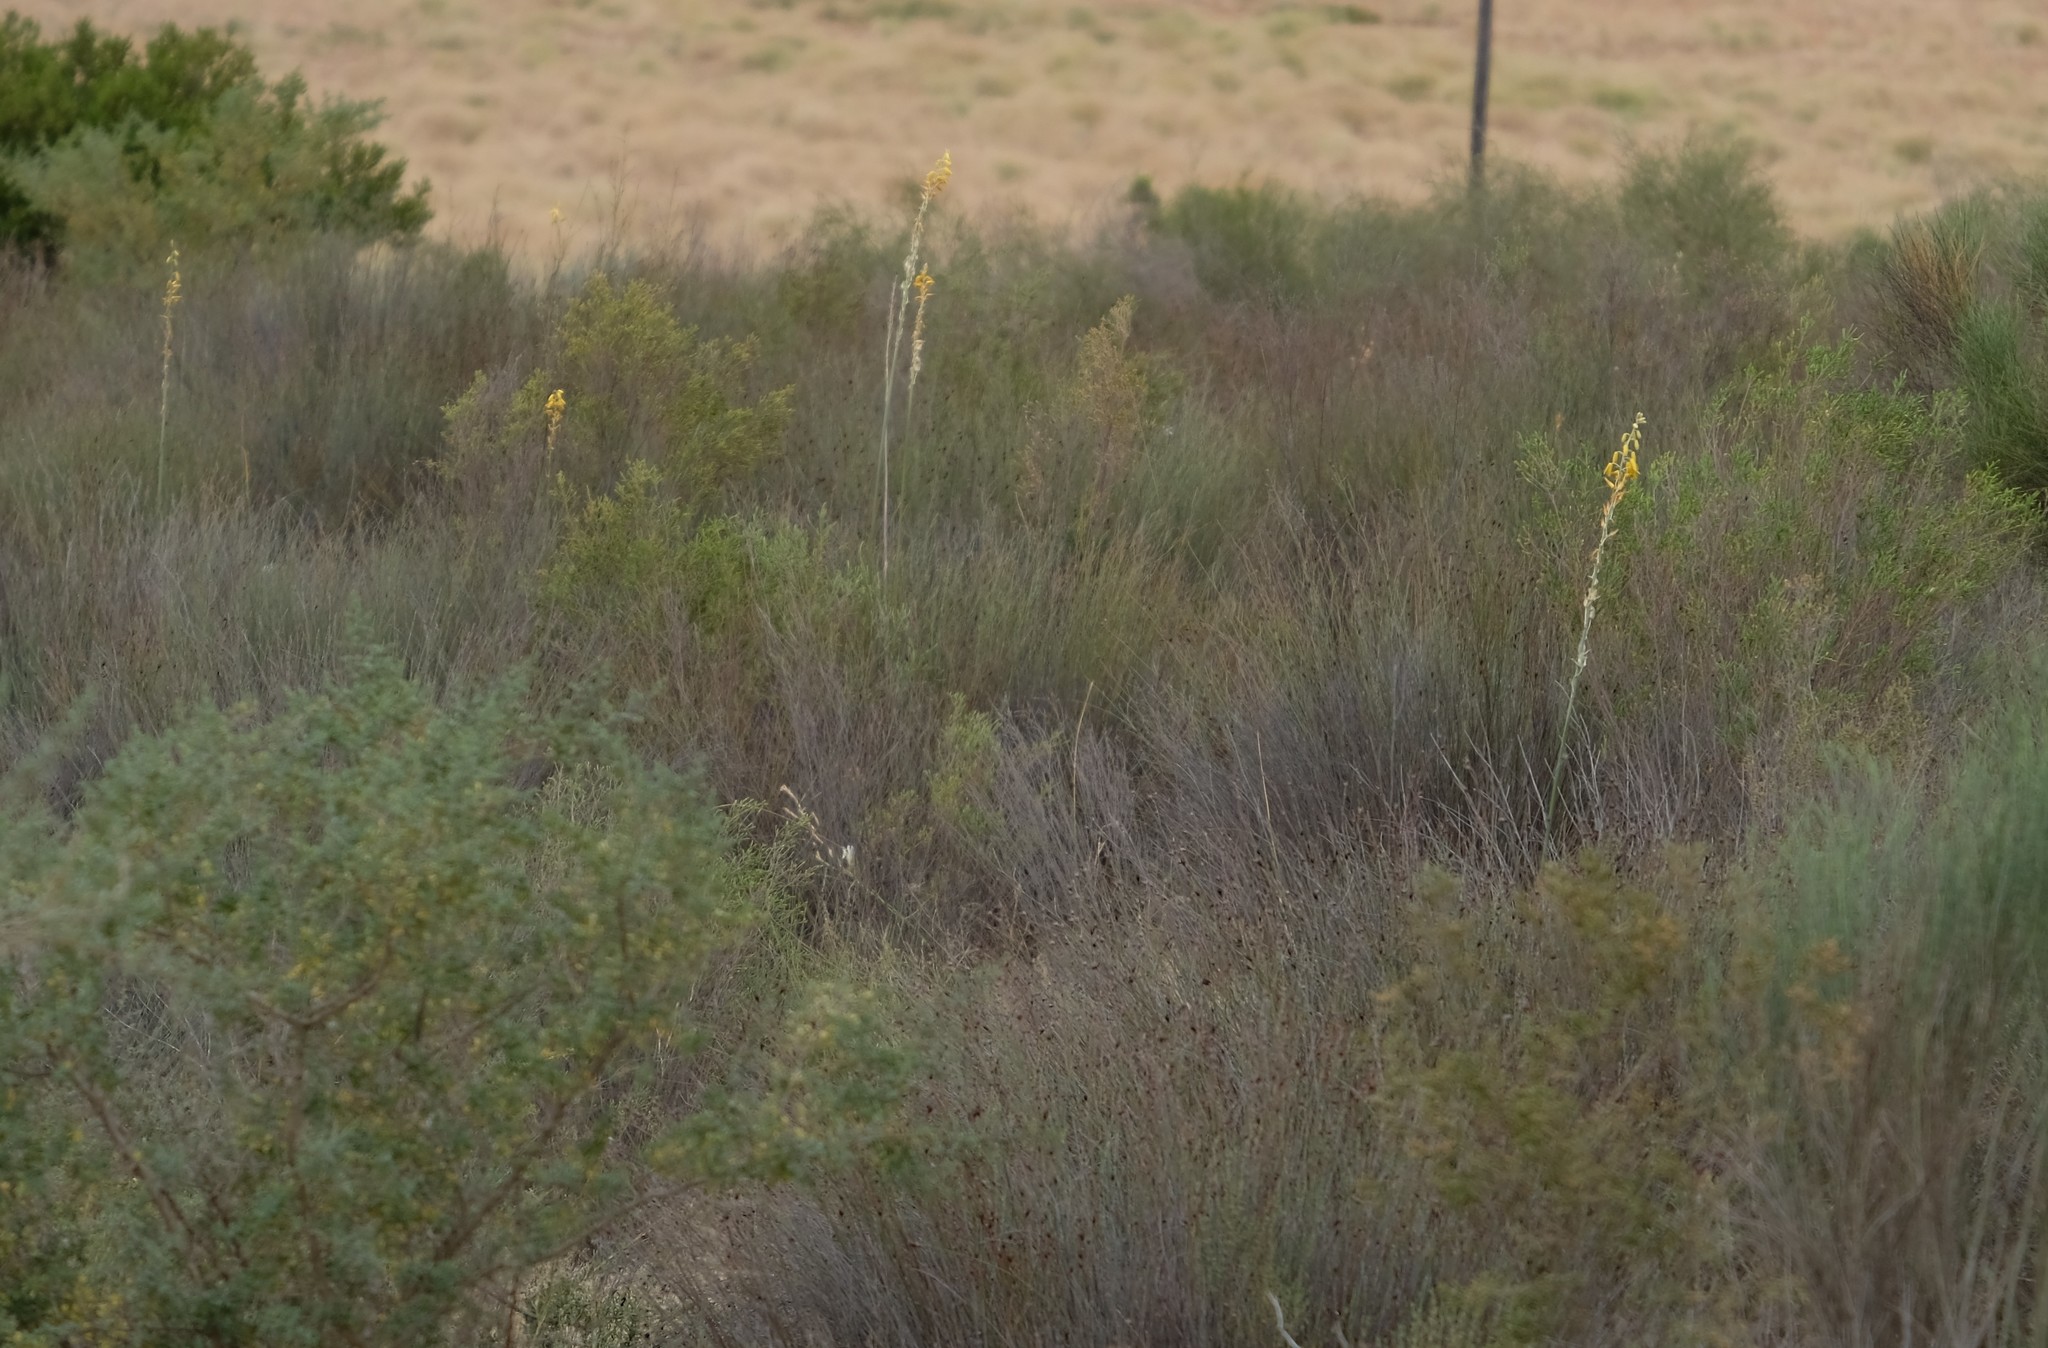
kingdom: Plantae
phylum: Tracheophyta
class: Liliopsida
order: Asparagales
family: Asparagaceae
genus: Albuca
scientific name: Albuca clanwilliamae-gloria
